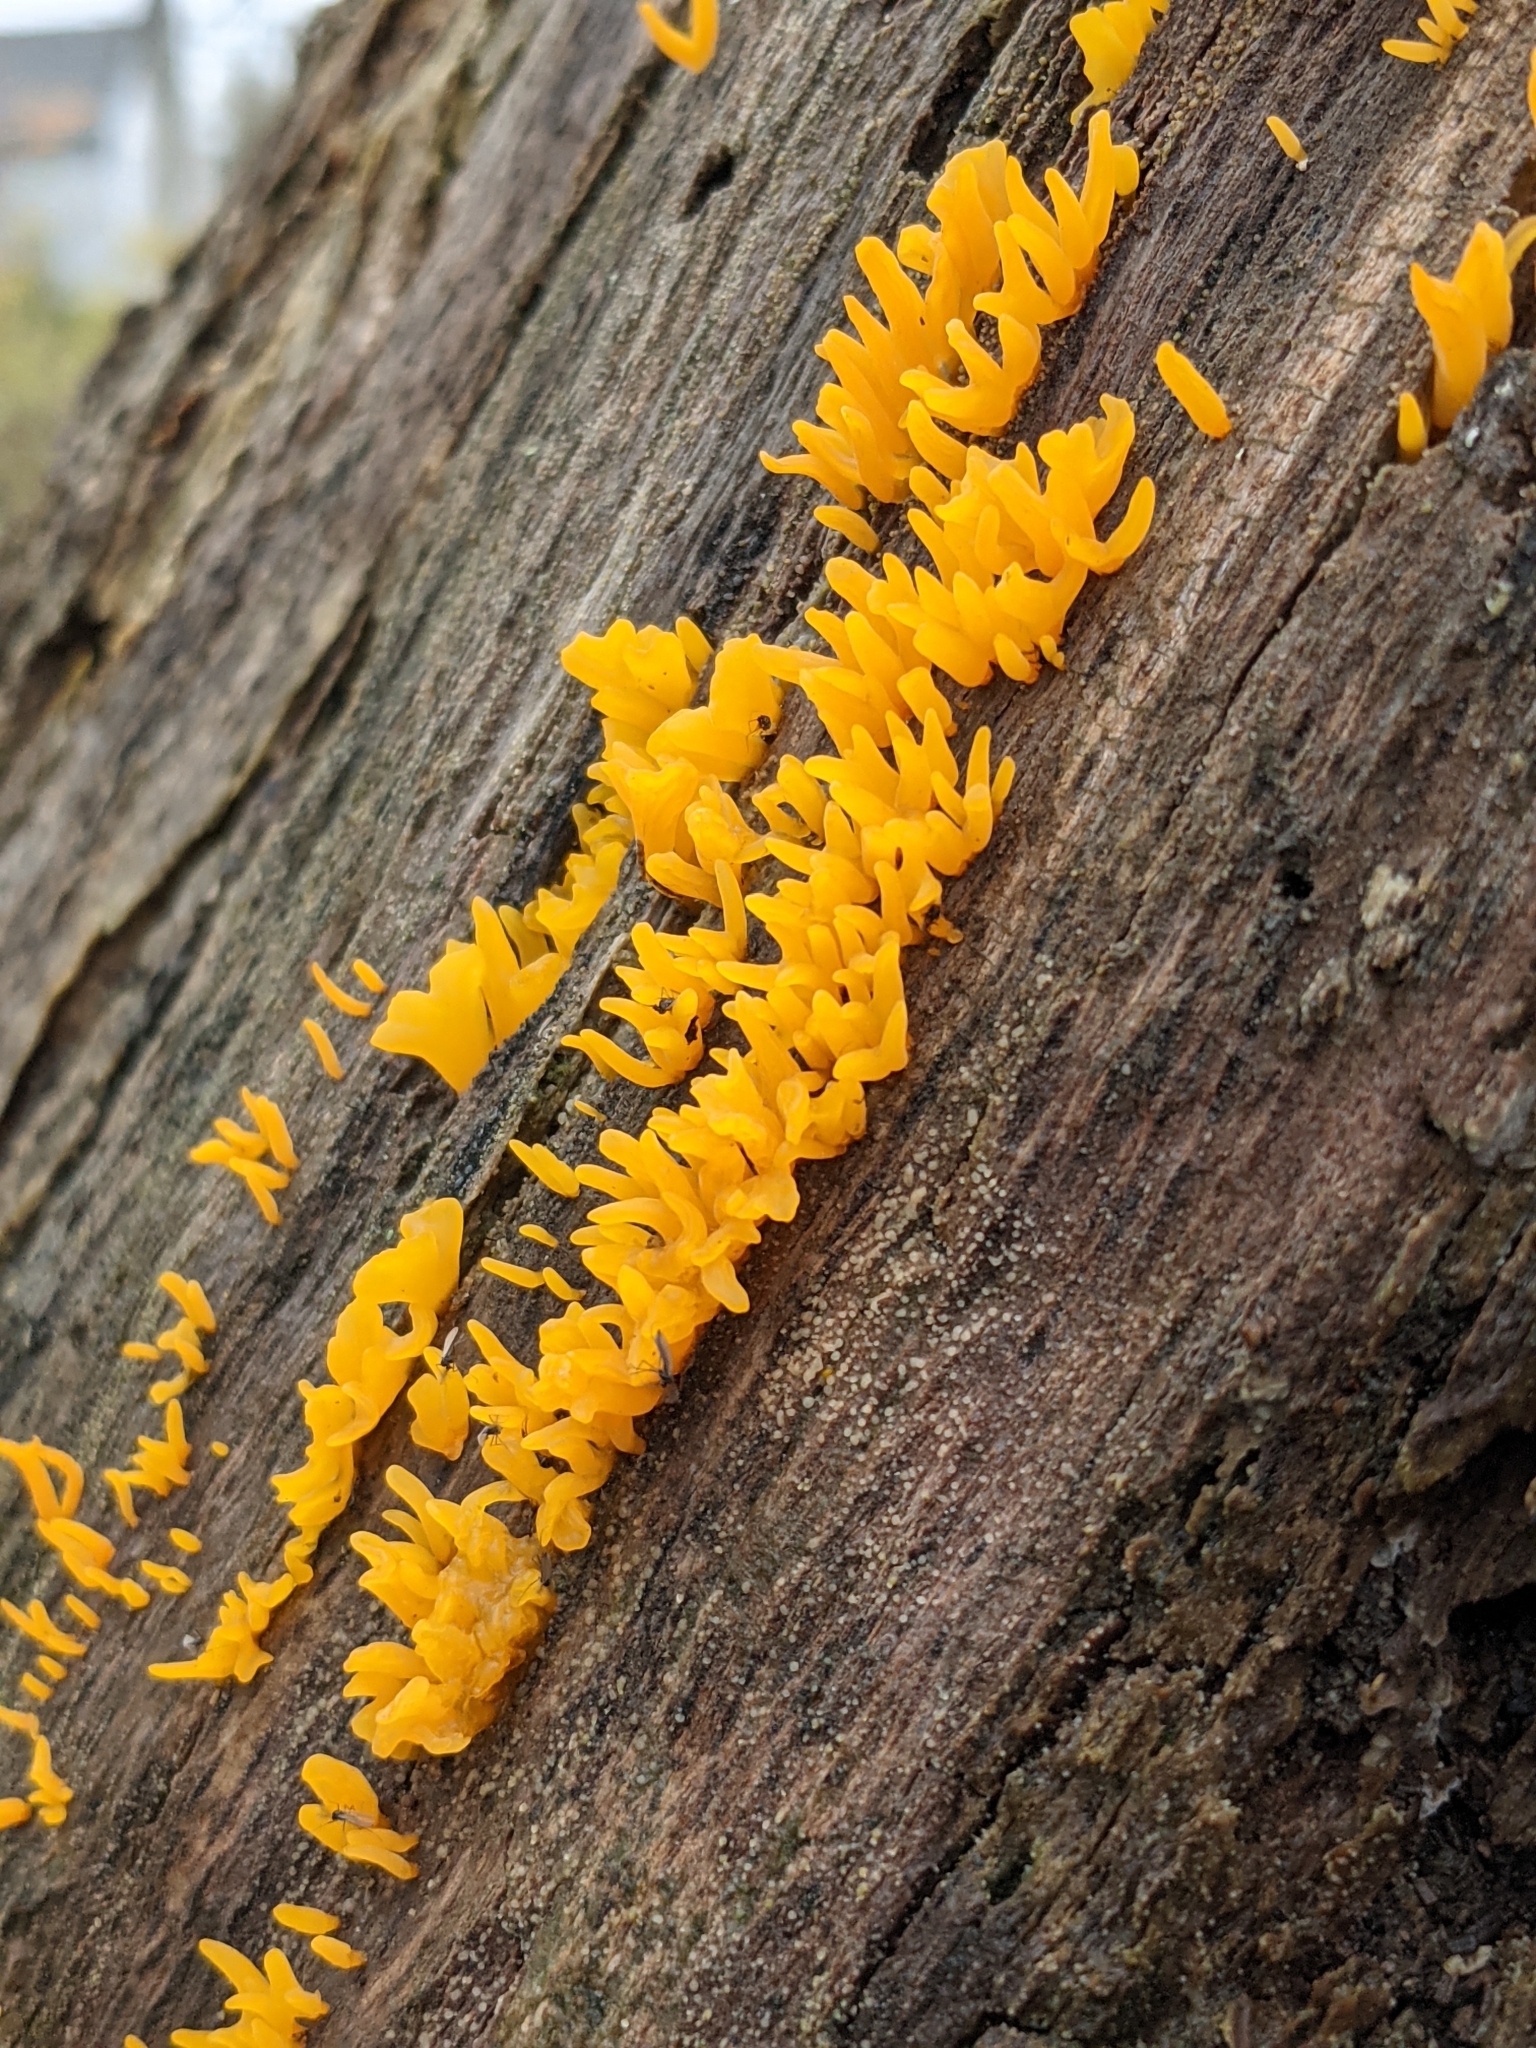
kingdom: Fungi
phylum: Basidiomycota
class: Dacrymycetes
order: Dacrymycetales
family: Dacrymycetaceae
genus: Calocera
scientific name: Calocera cornea
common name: Small stagshorn
